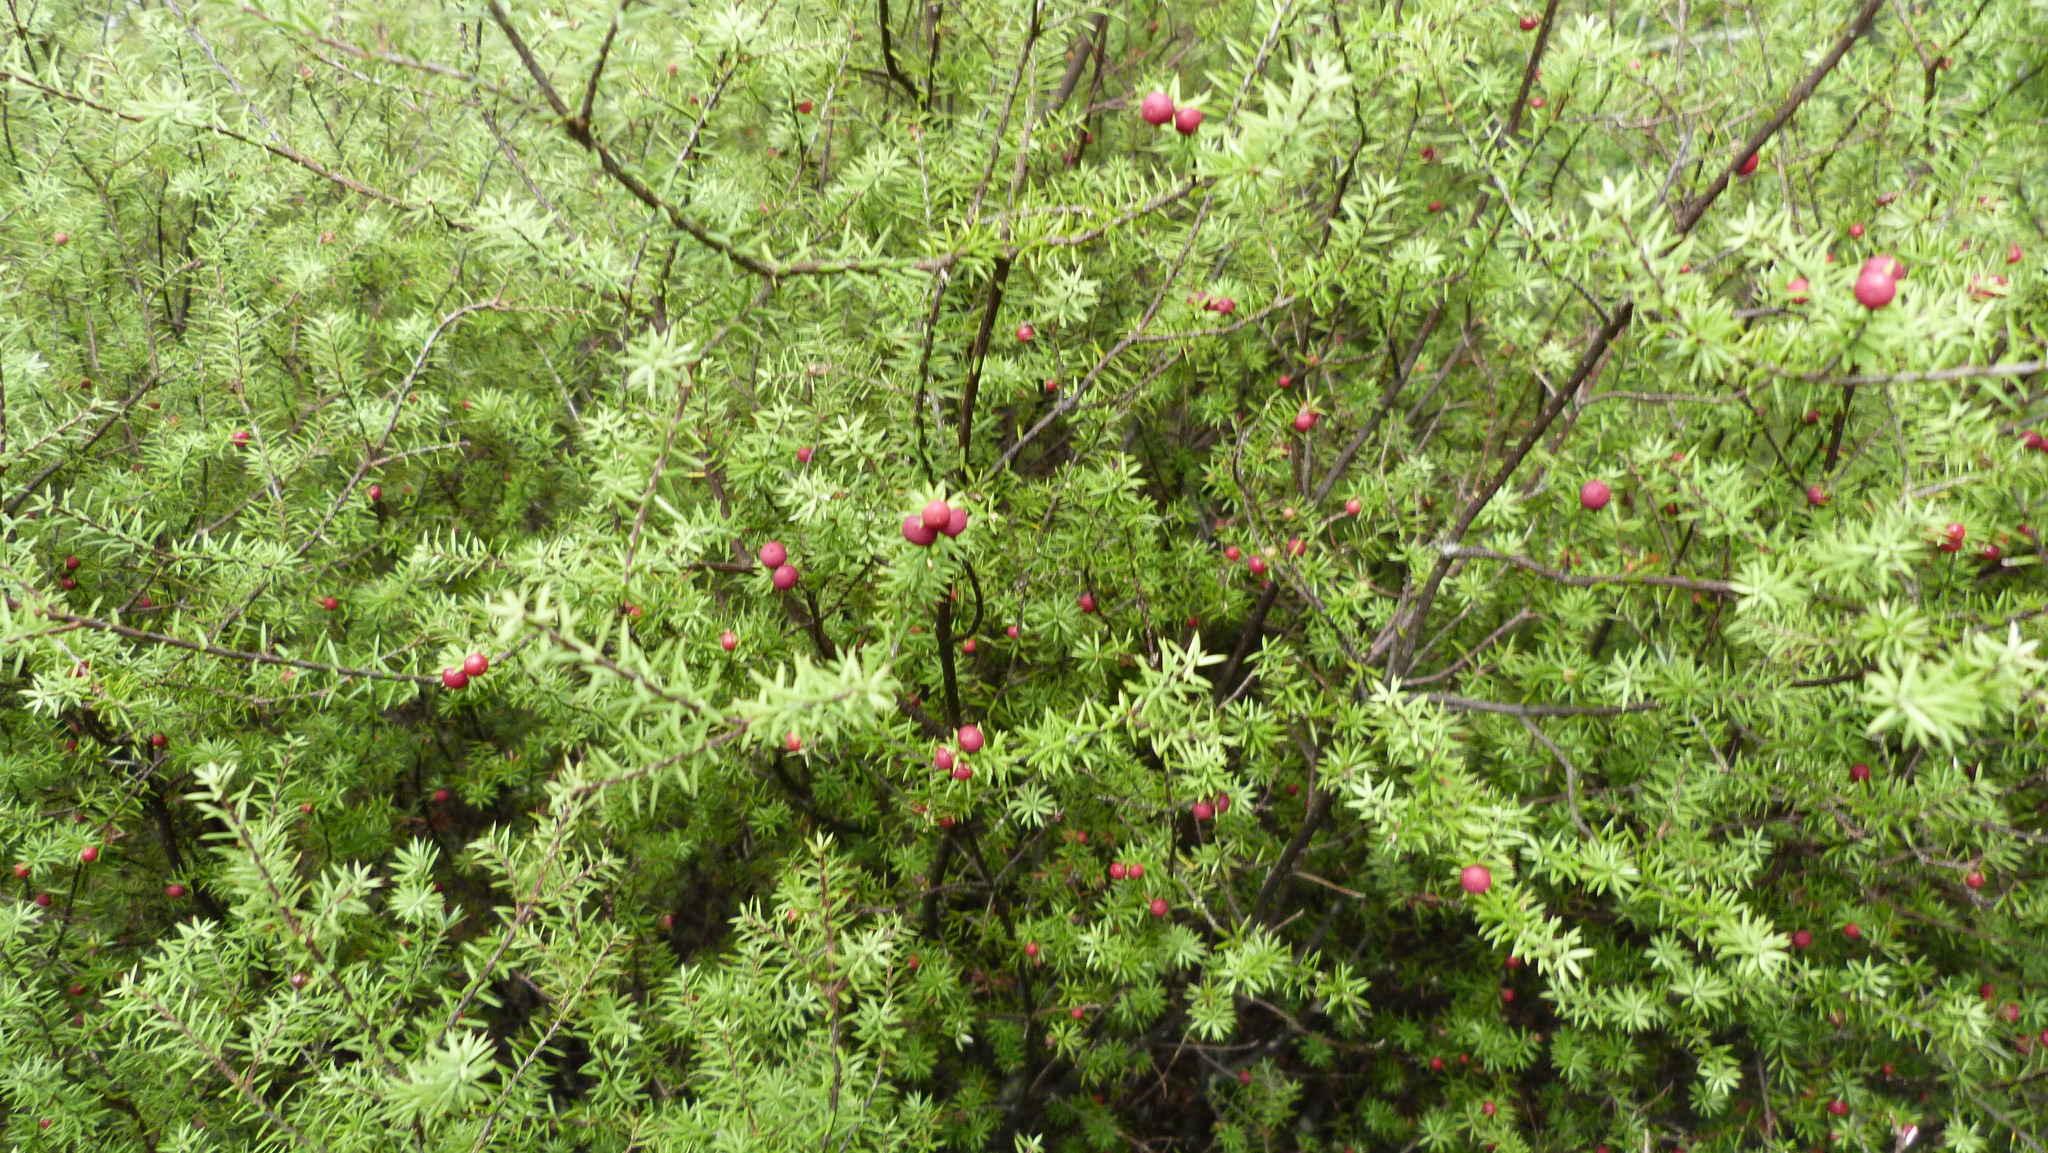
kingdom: Plantae
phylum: Tracheophyta
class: Magnoliopsida
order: Ericales
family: Ericaceae
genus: Leptecophylla
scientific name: Leptecophylla juniperina
